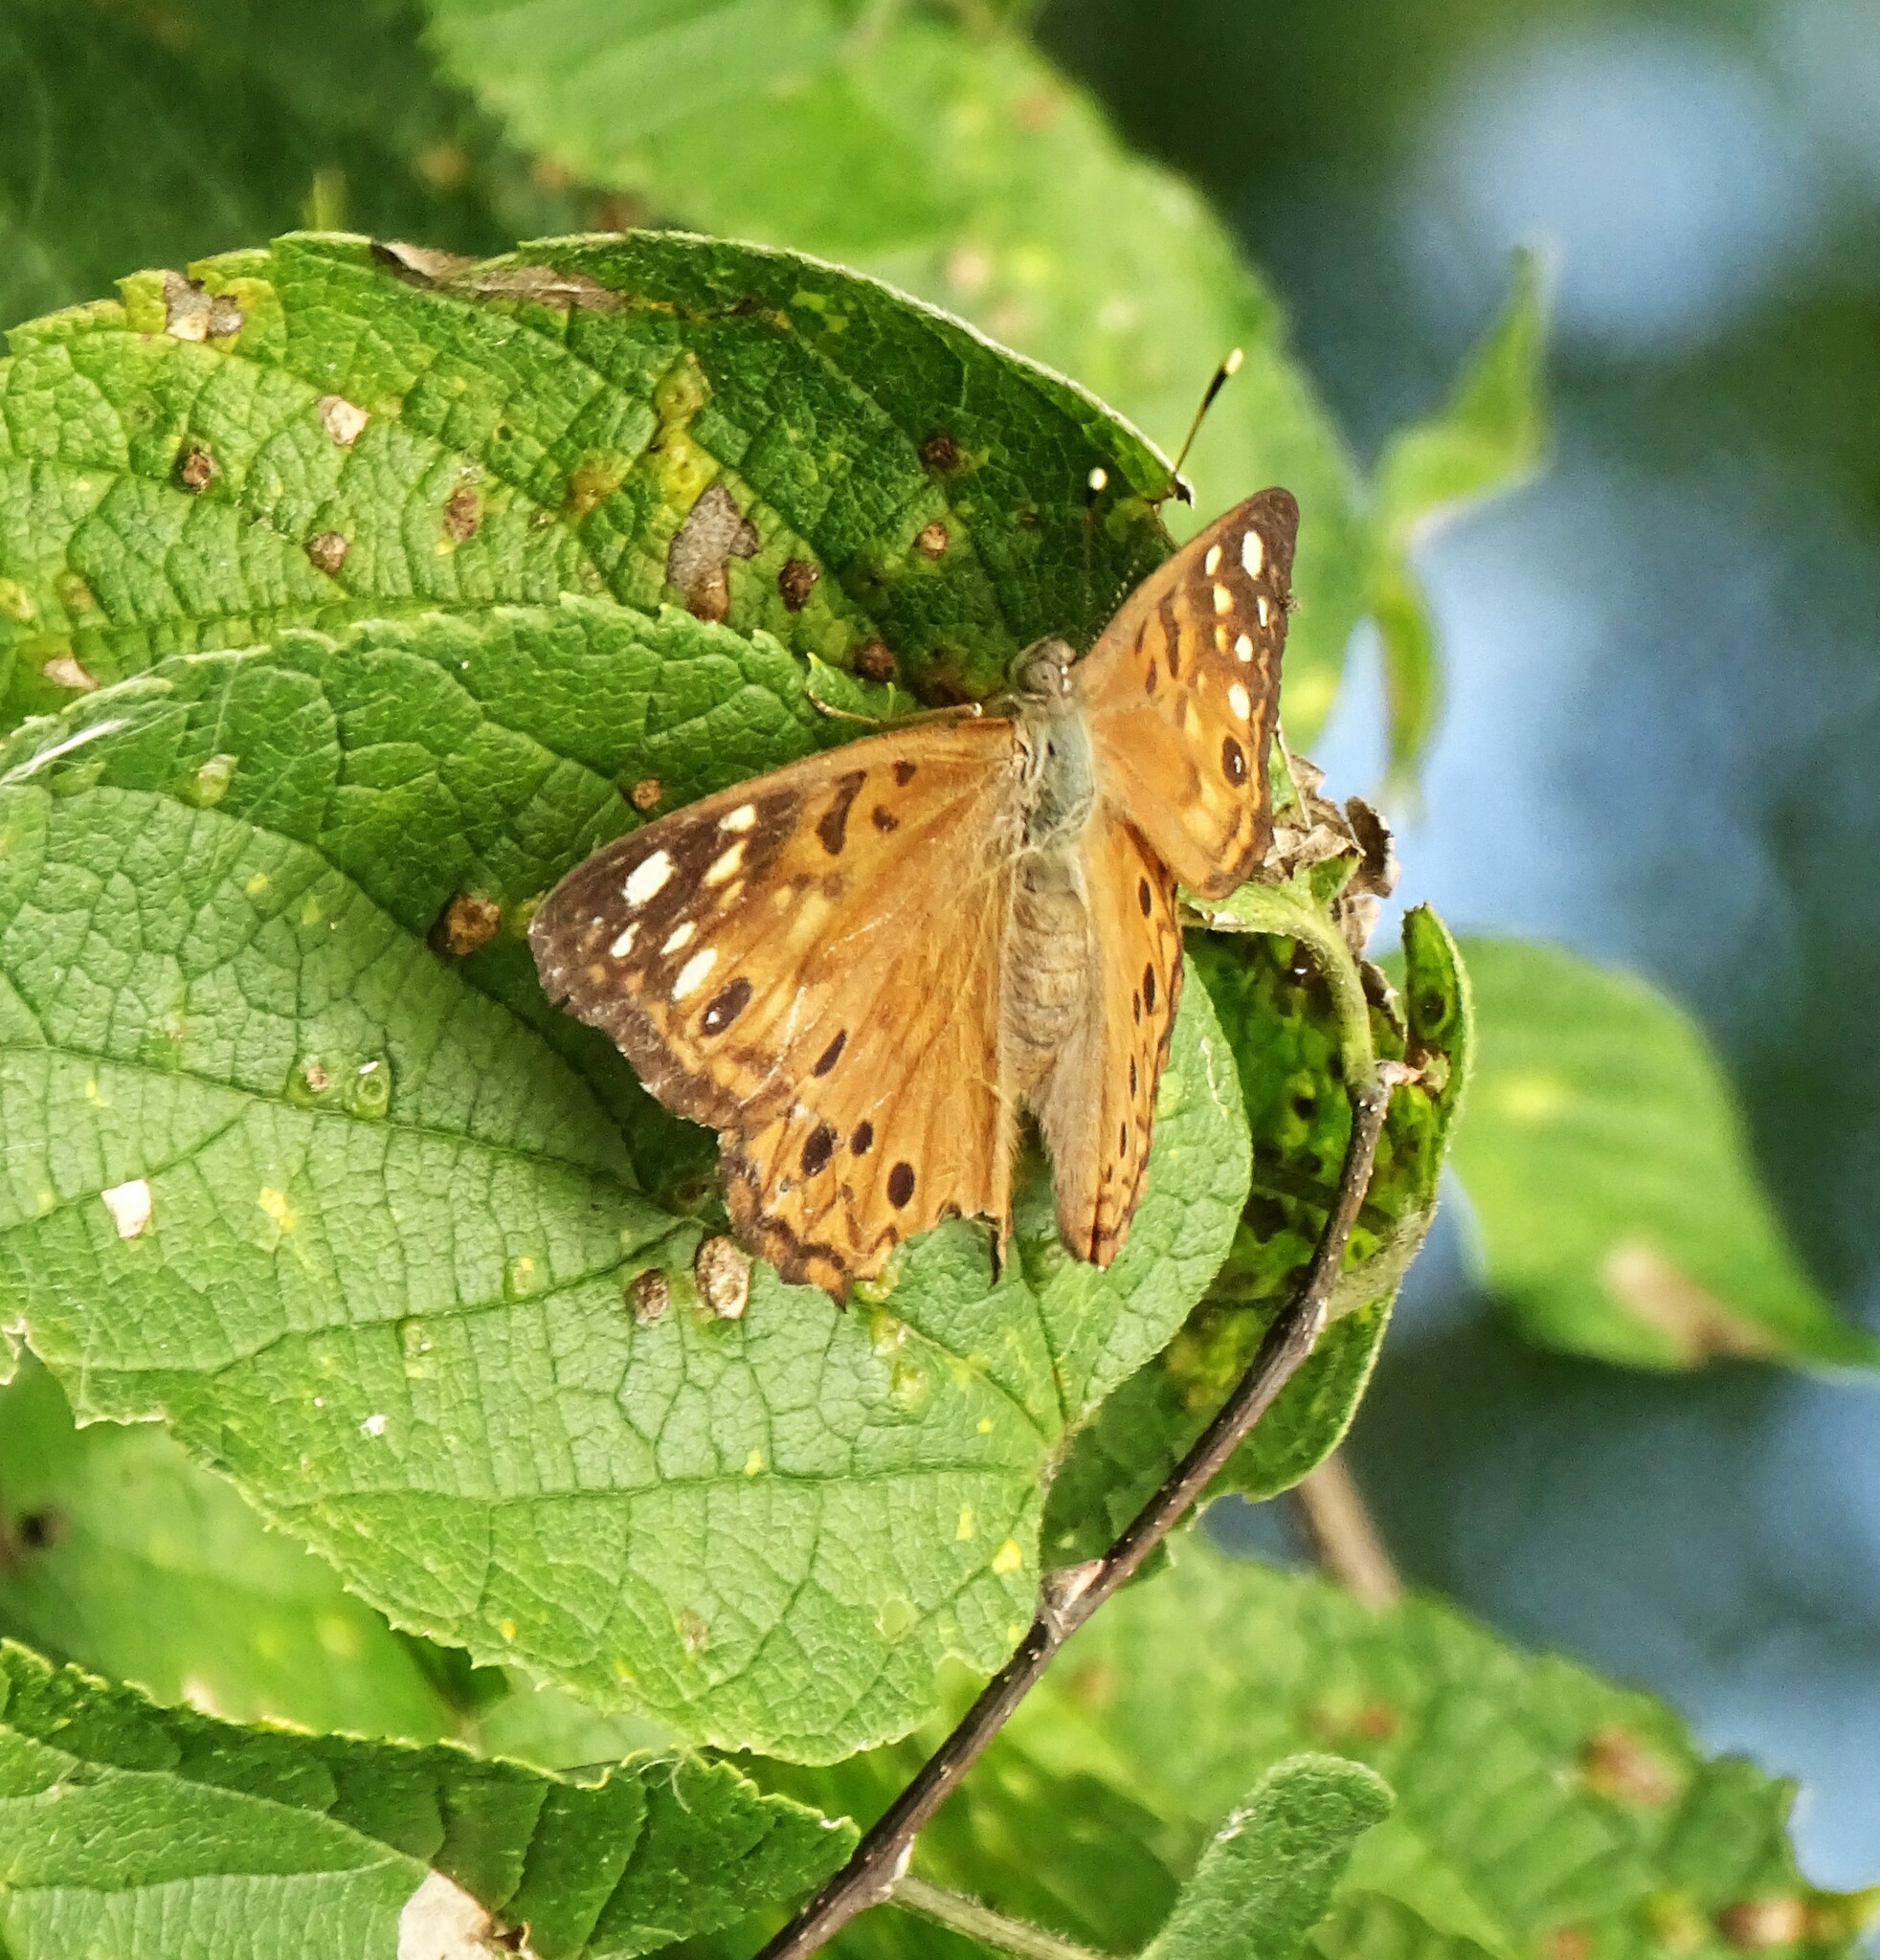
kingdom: Animalia
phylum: Arthropoda
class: Insecta
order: Lepidoptera
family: Nymphalidae
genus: Asterocampa
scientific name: Asterocampa celtis
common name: Hackberry emperor
